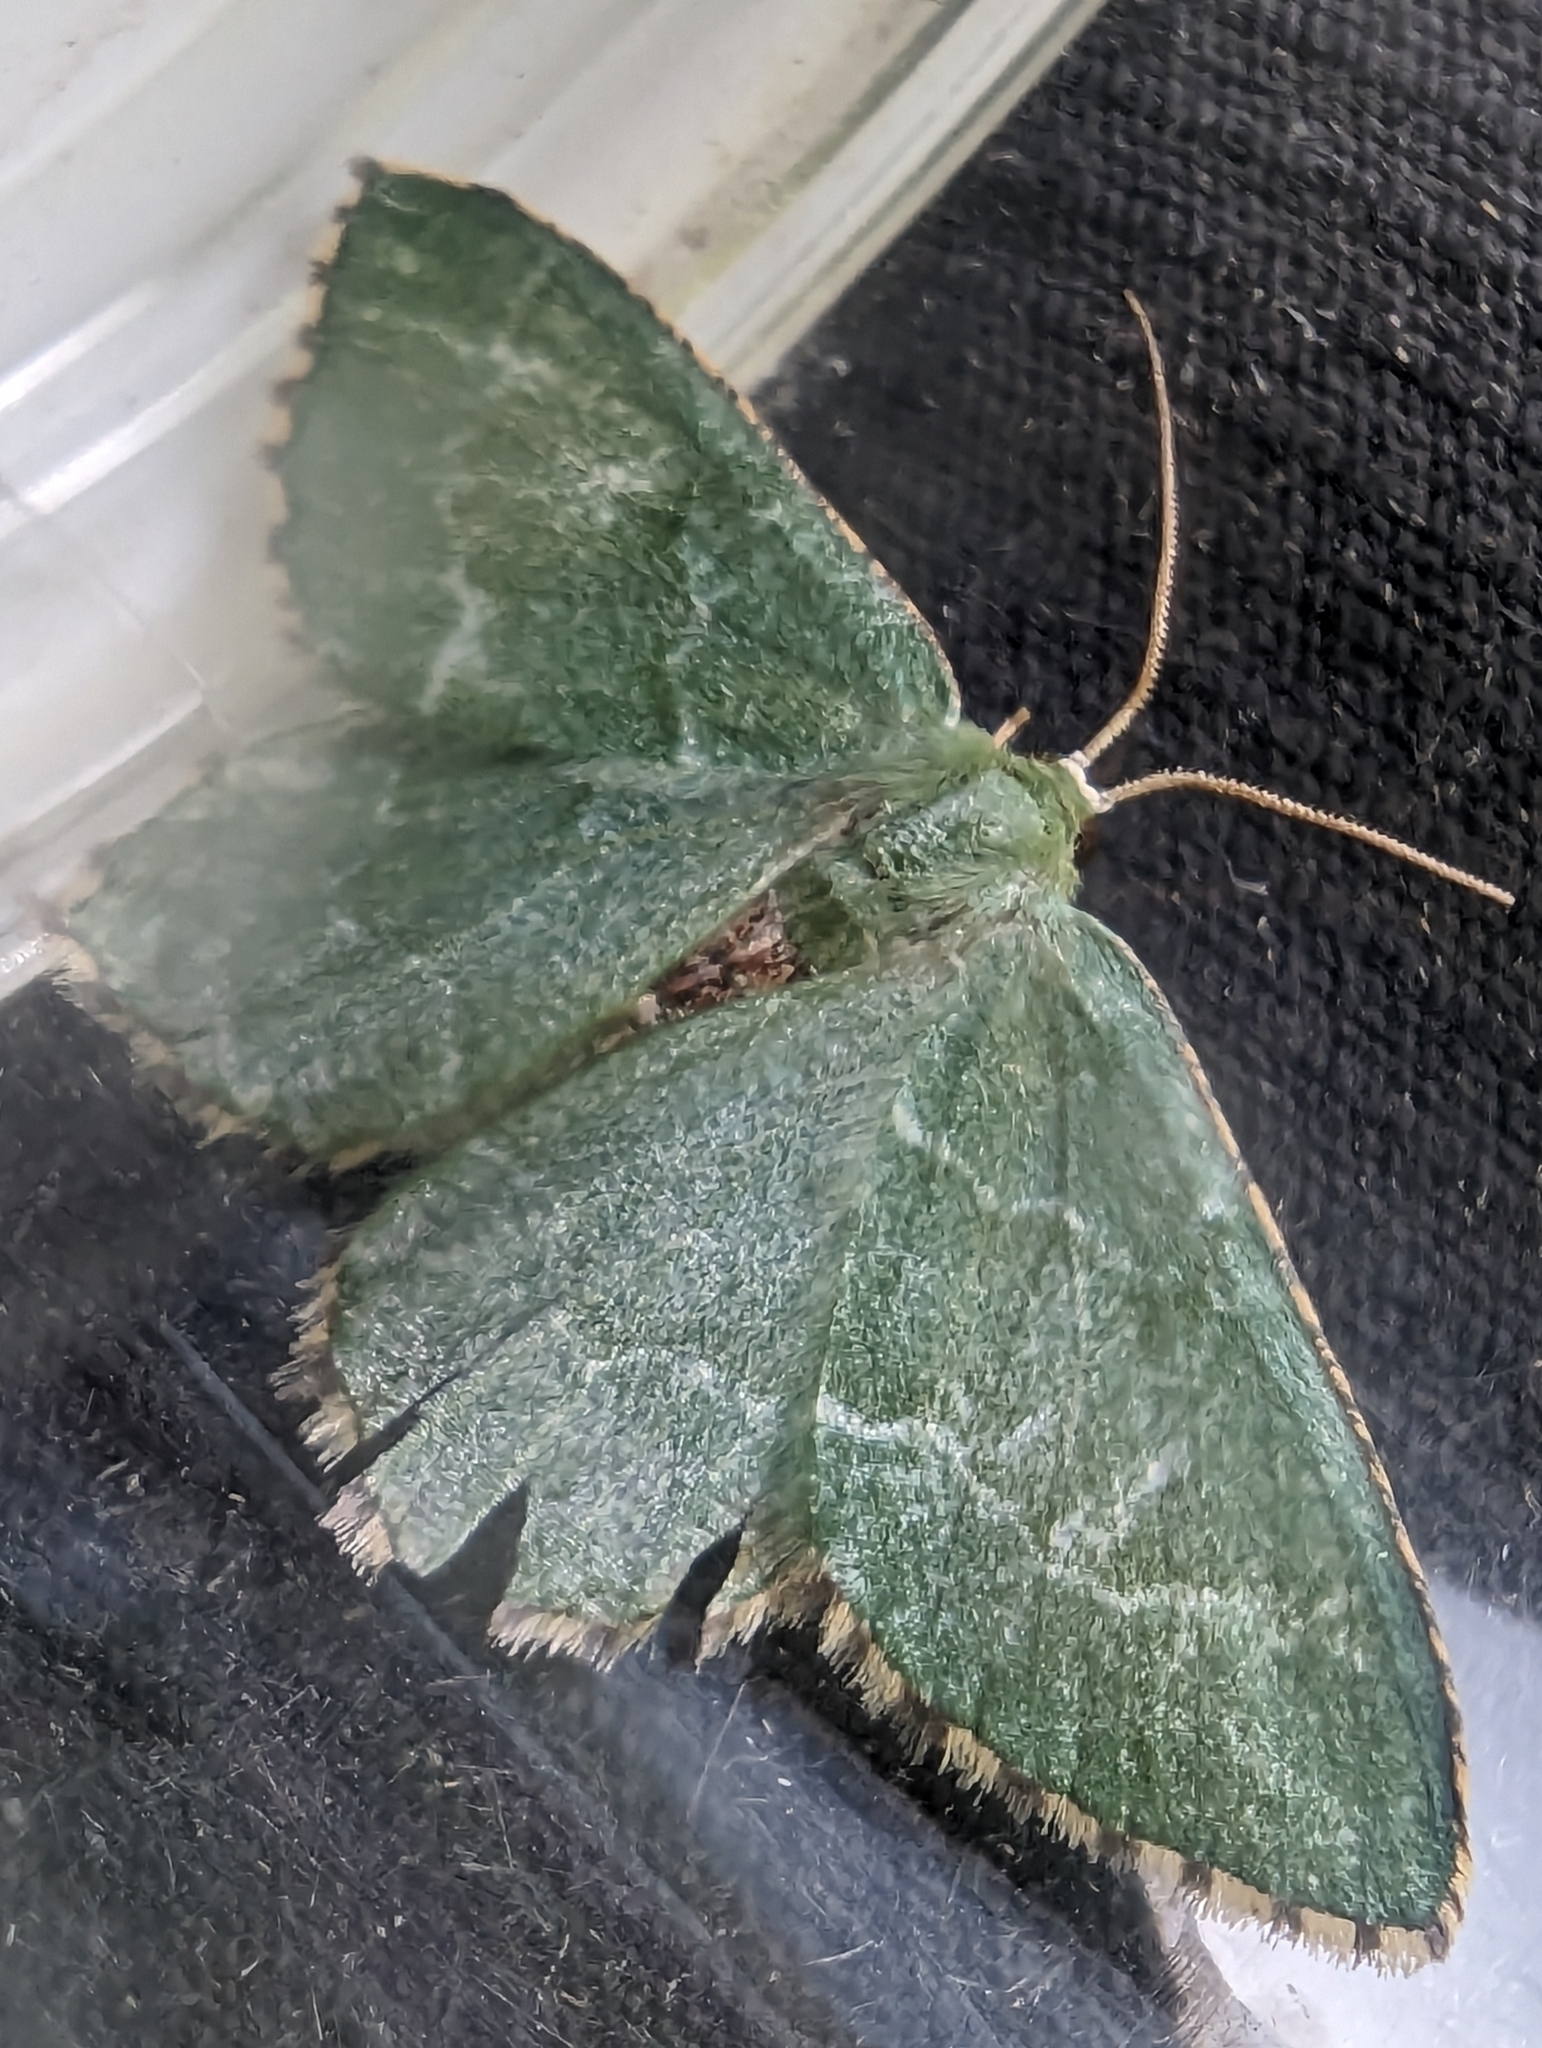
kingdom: Animalia
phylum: Arthropoda
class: Insecta
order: Lepidoptera
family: Geometridae
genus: Hemithea
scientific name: Hemithea aestivaria
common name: Common emerald
